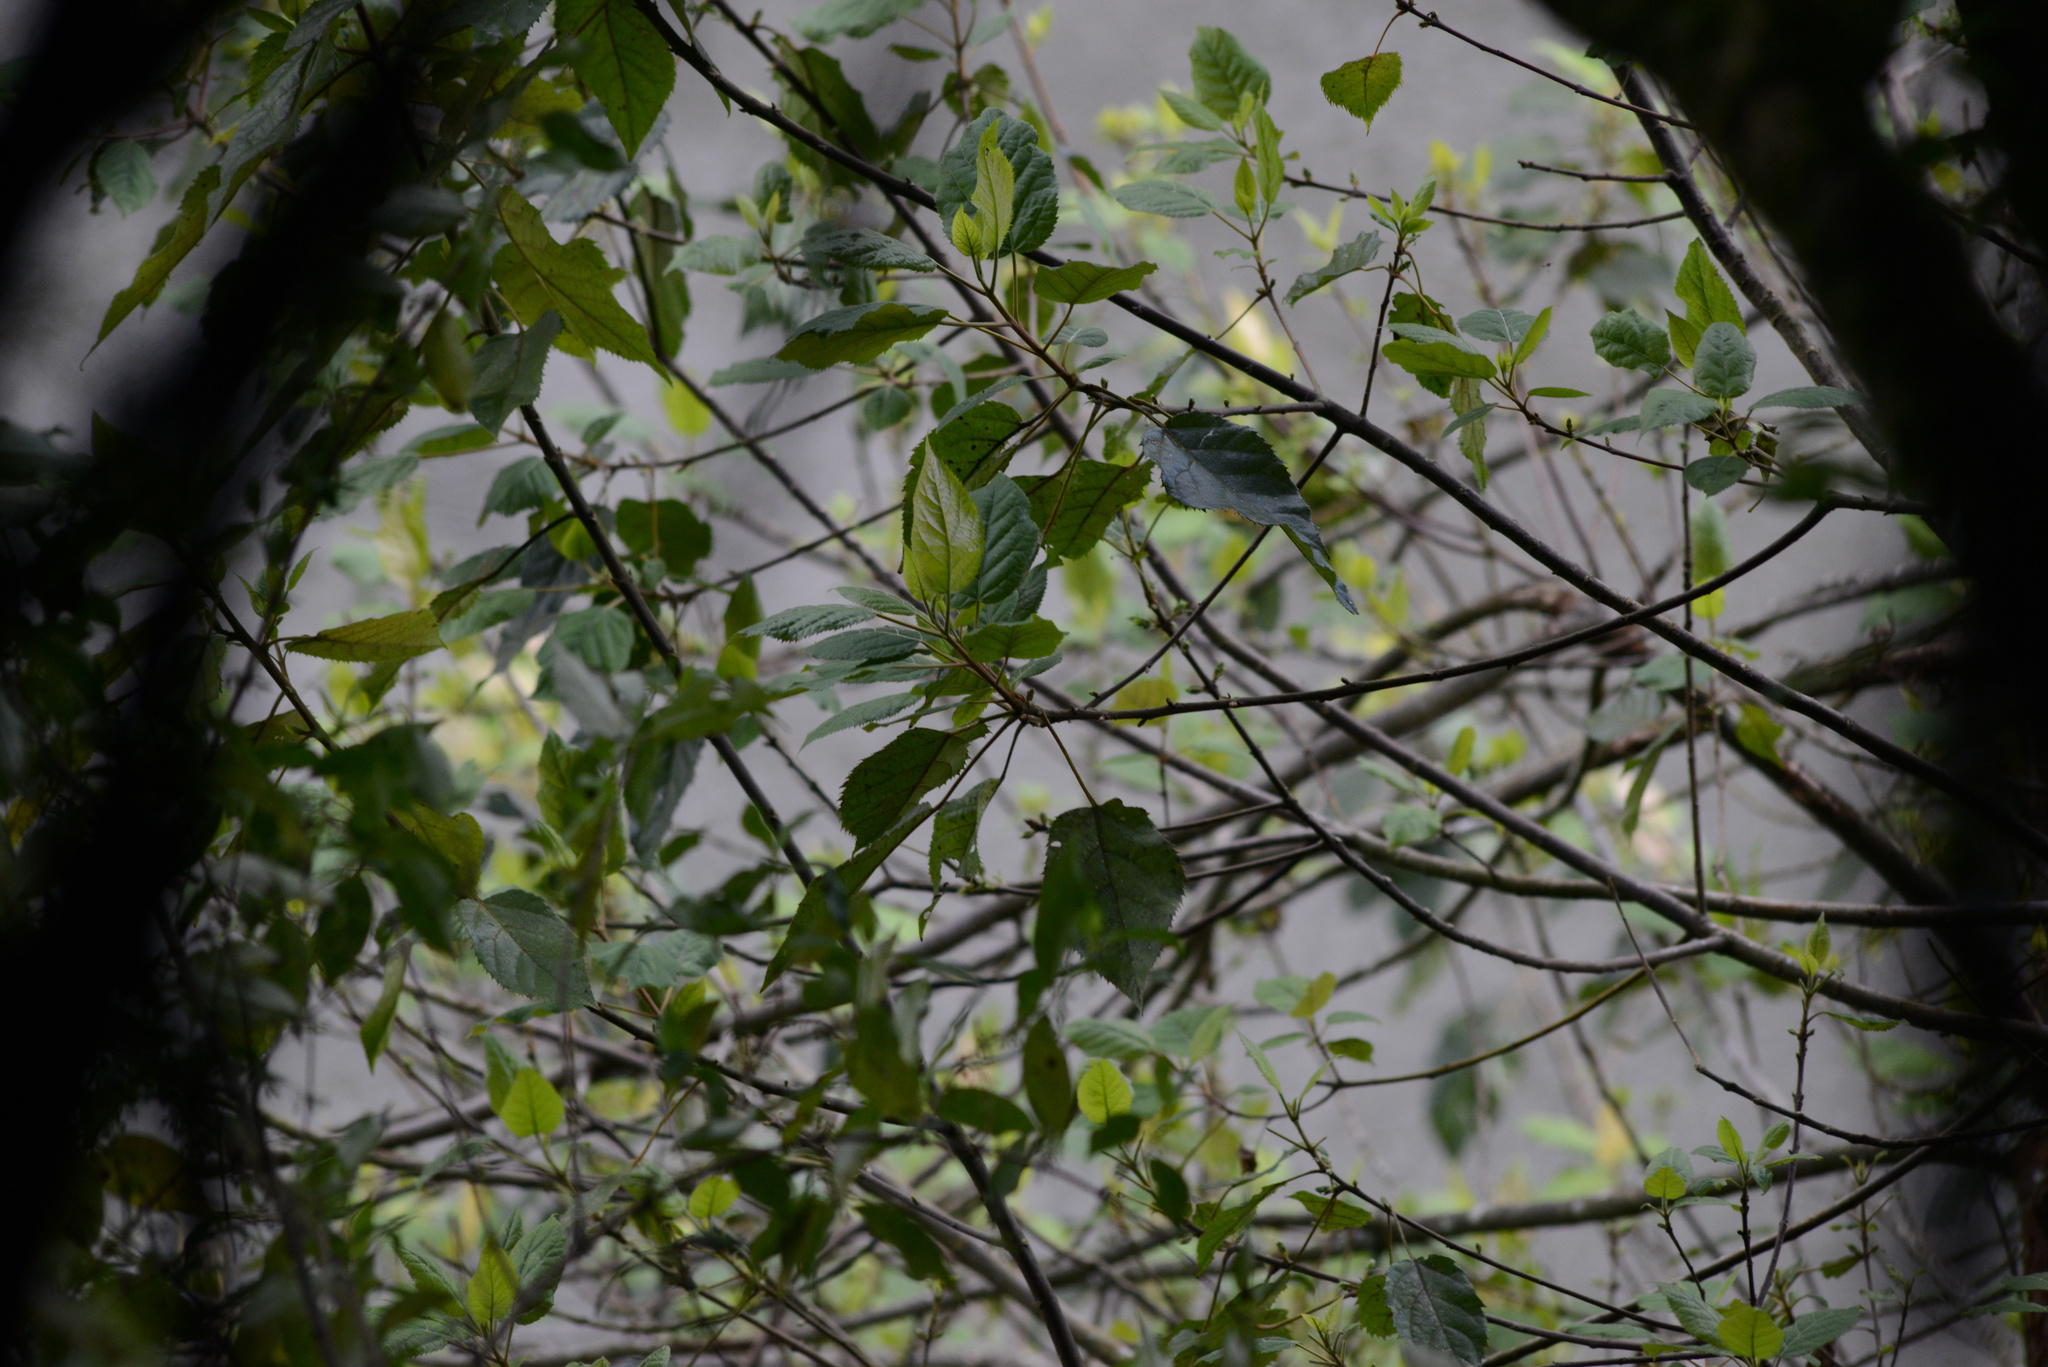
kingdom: Plantae
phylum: Tracheophyta
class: Magnoliopsida
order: Oxalidales
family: Elaeocarpaceae
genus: Aristotelia
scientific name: Aristotelia serrata
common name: New zealand wineberry
